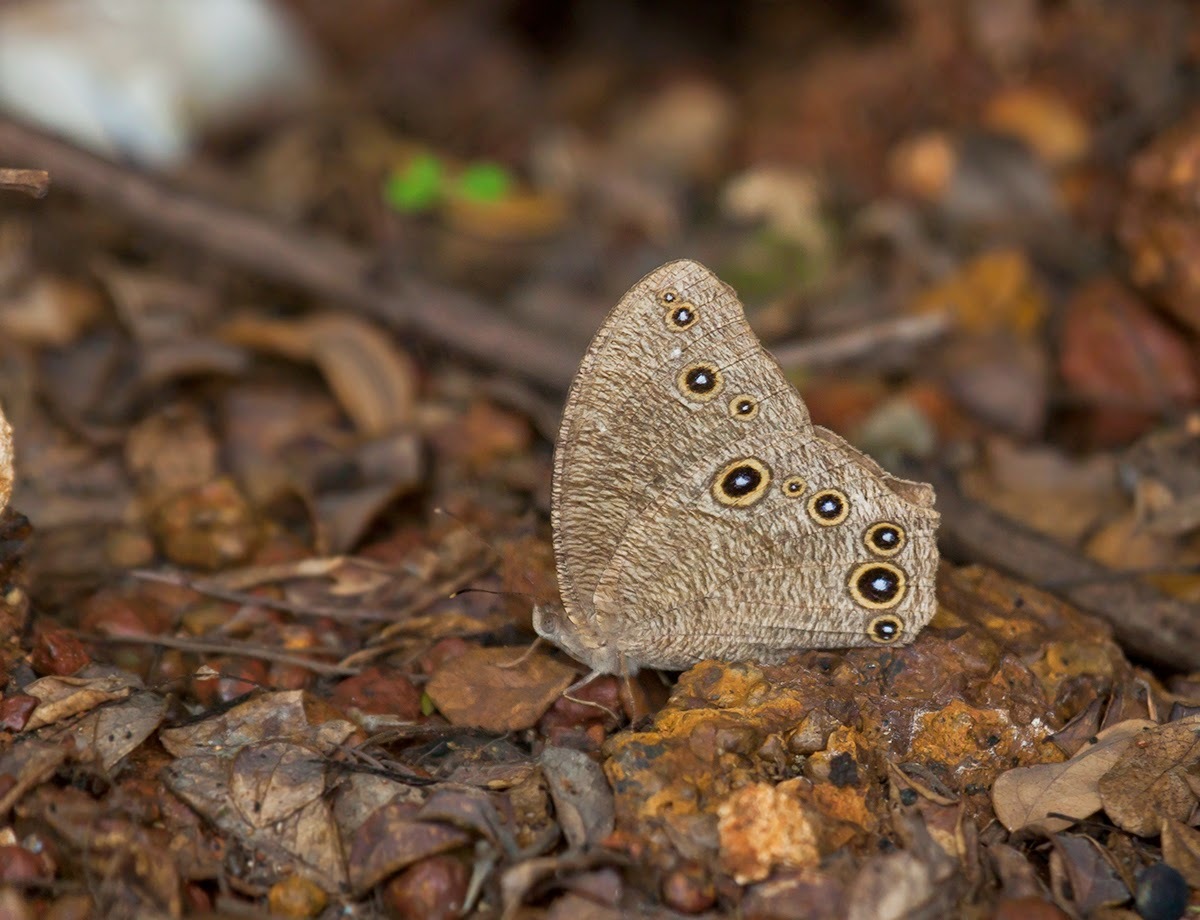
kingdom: Animalia
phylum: Arthropoda
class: Insecta
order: Lepidoptera
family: Nymphalidae
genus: Melanitis
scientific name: Melanitis leda
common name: Twilight brown
